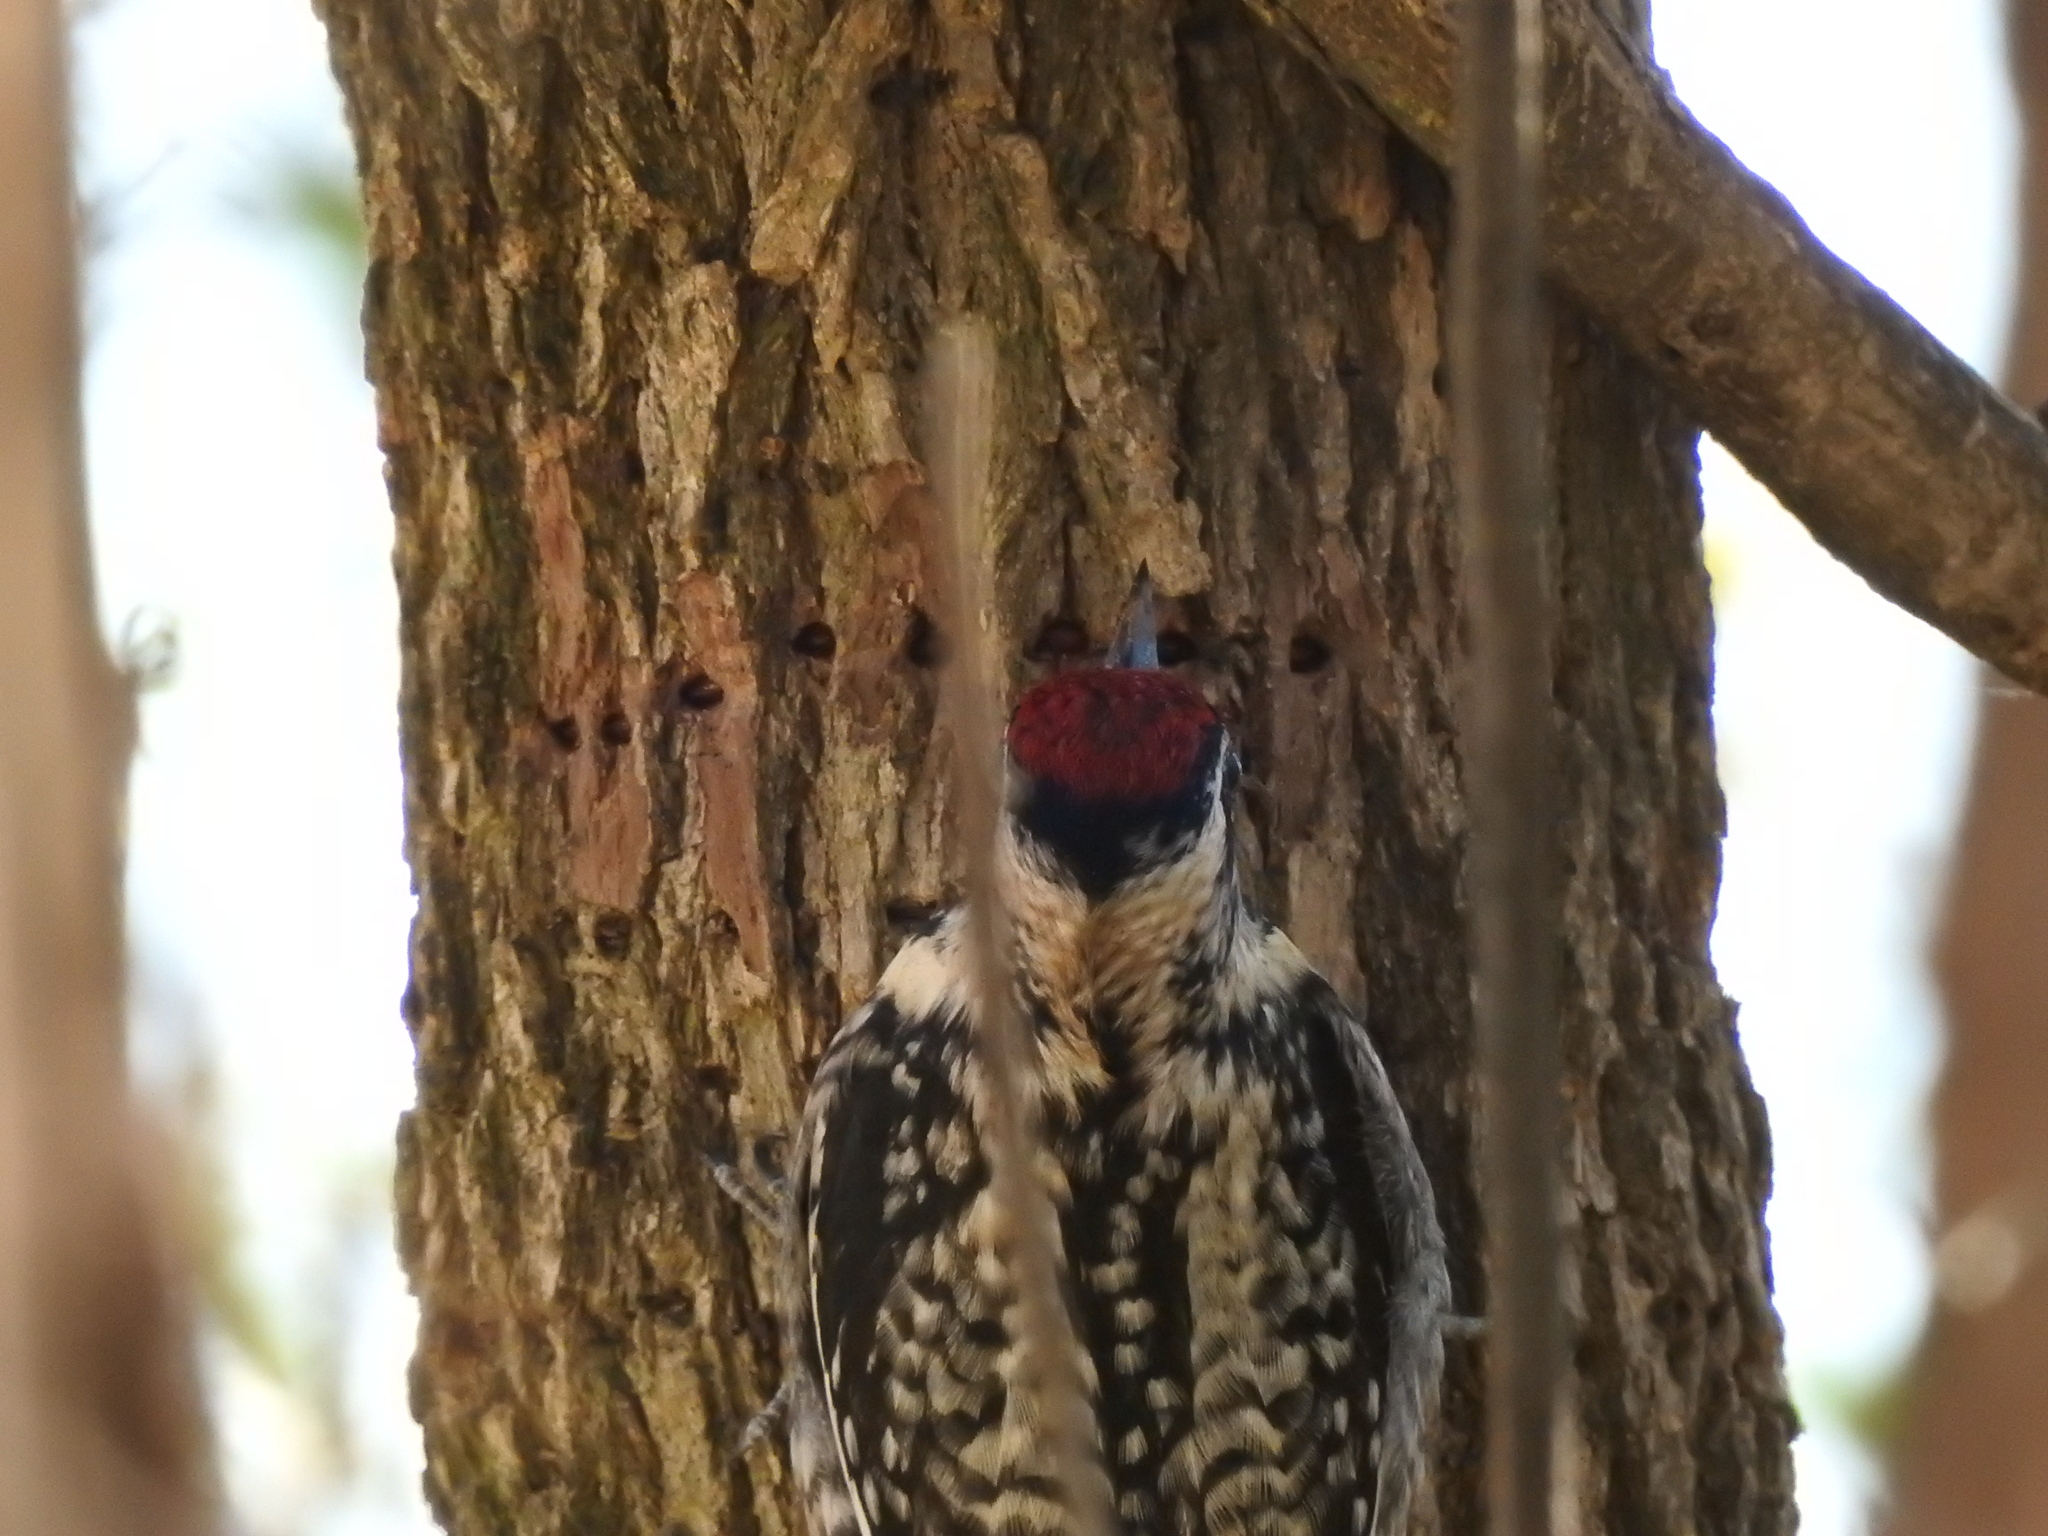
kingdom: Animalia
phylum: Chordata
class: Aves
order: Piciformes
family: Picidae
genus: Sphyrapicus
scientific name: Sphyrapicus varius
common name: Yellow-bellied sapsucker
